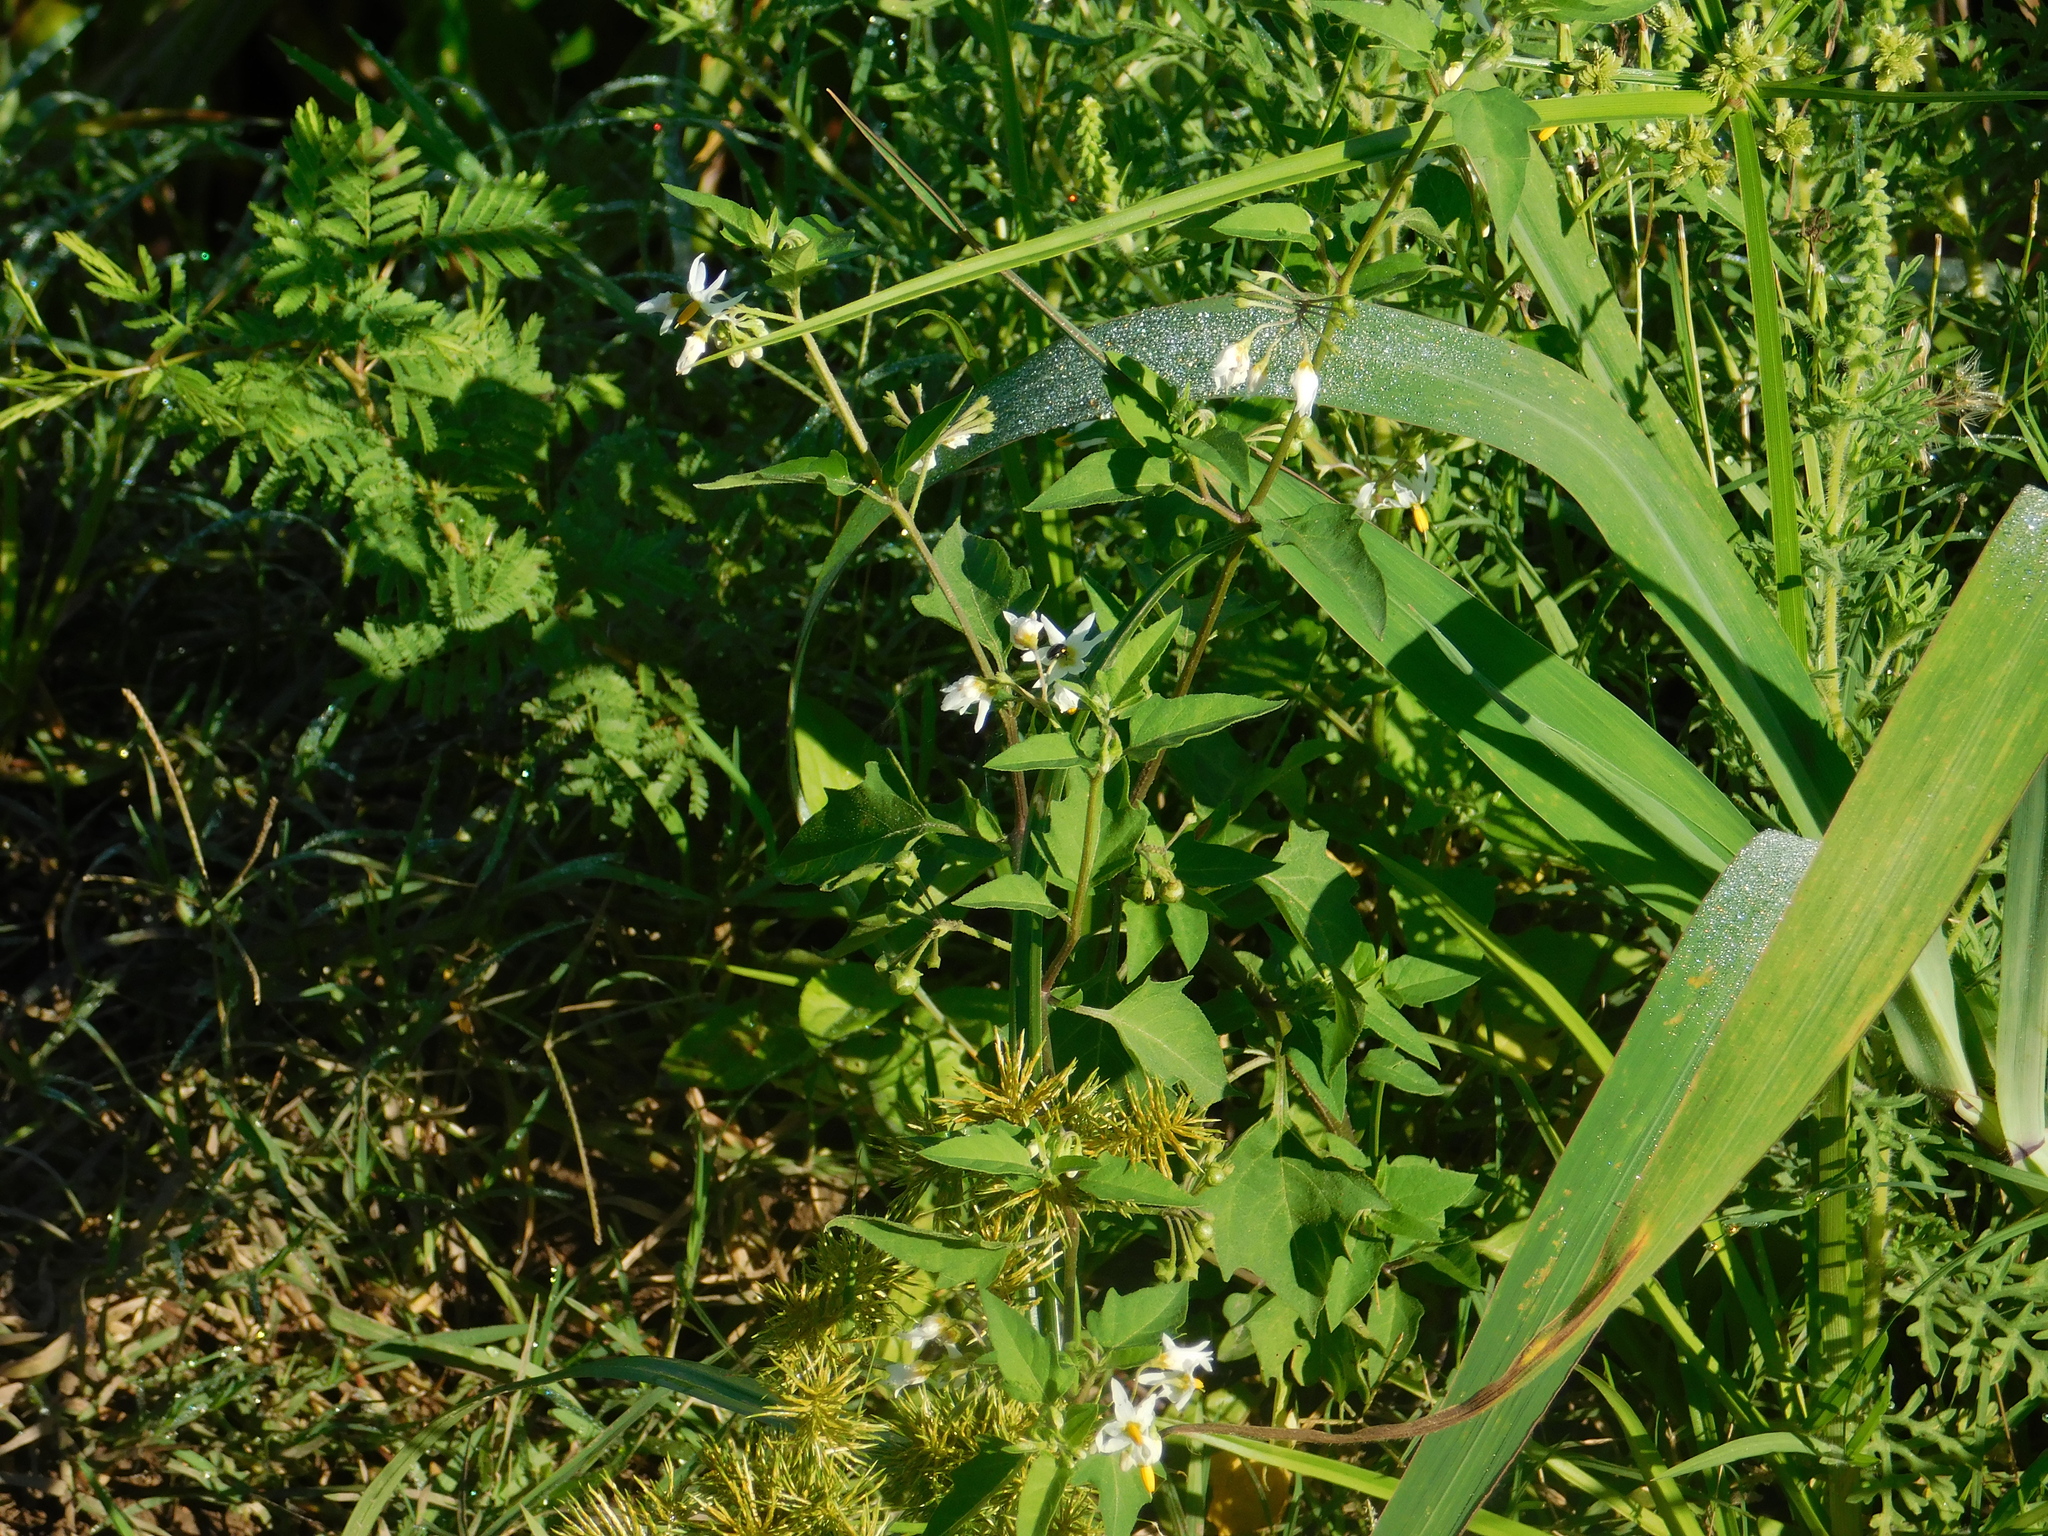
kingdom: Plantae
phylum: Tracheophyta
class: Magnoliopsida
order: Solanales
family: Solanaceae
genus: Solanum
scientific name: Solanum pilcomayense
